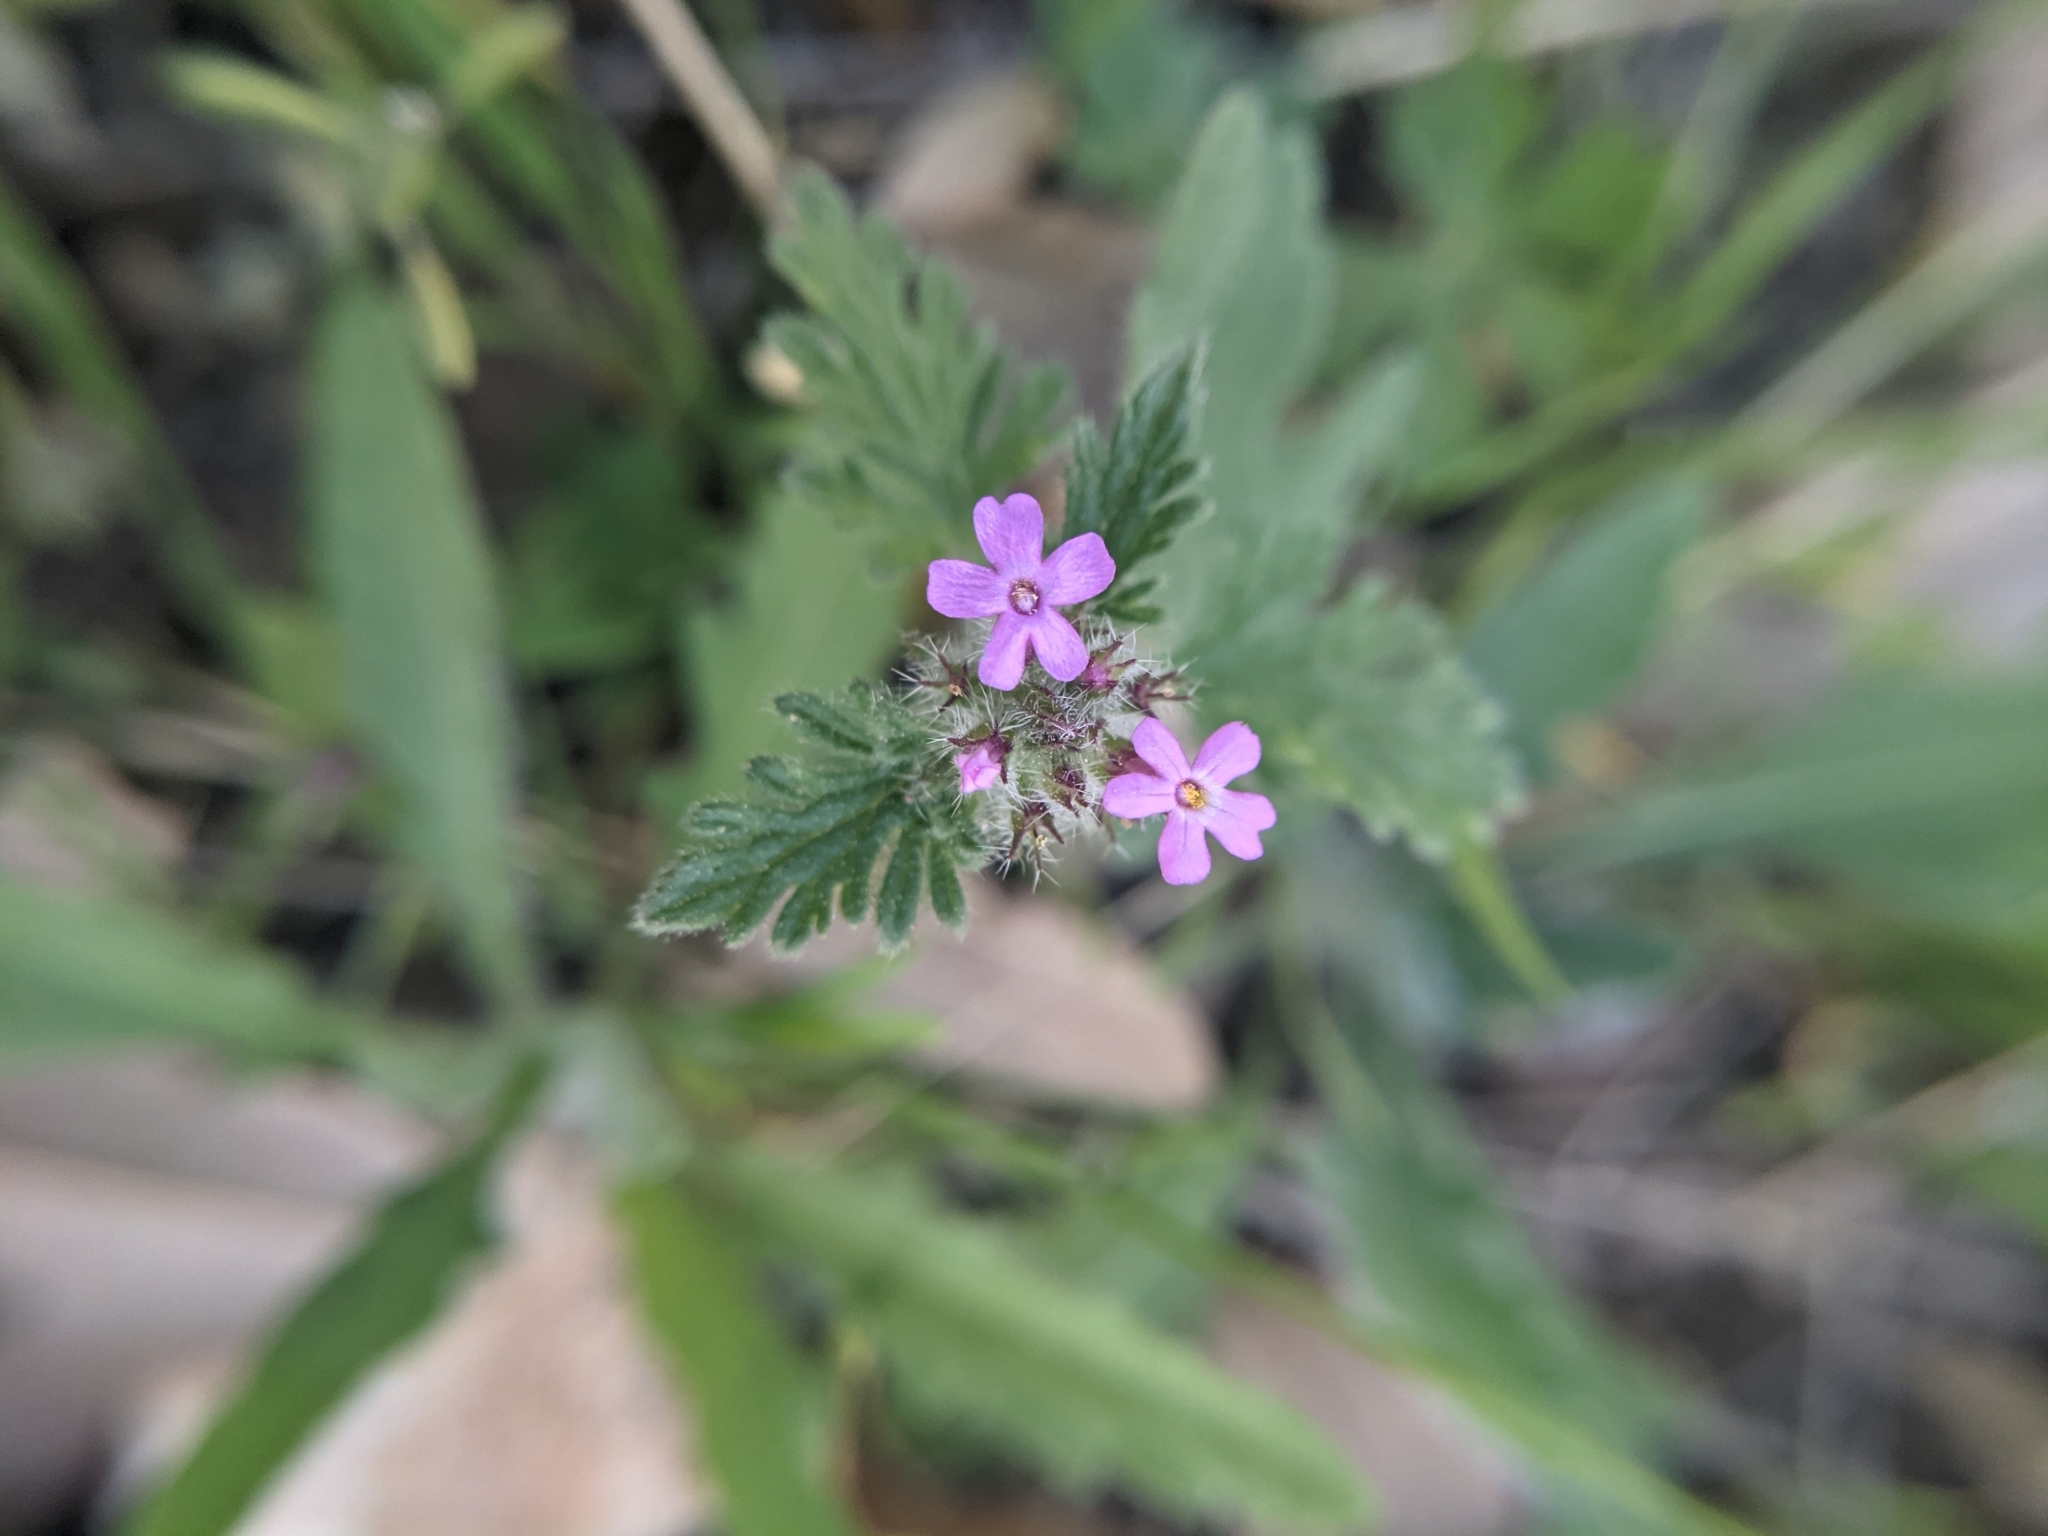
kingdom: Plantae
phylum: Tracheophyta
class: Magnoliopsida
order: Lamiales
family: Verbenaceae
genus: Verbena
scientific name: Verbena pumila
